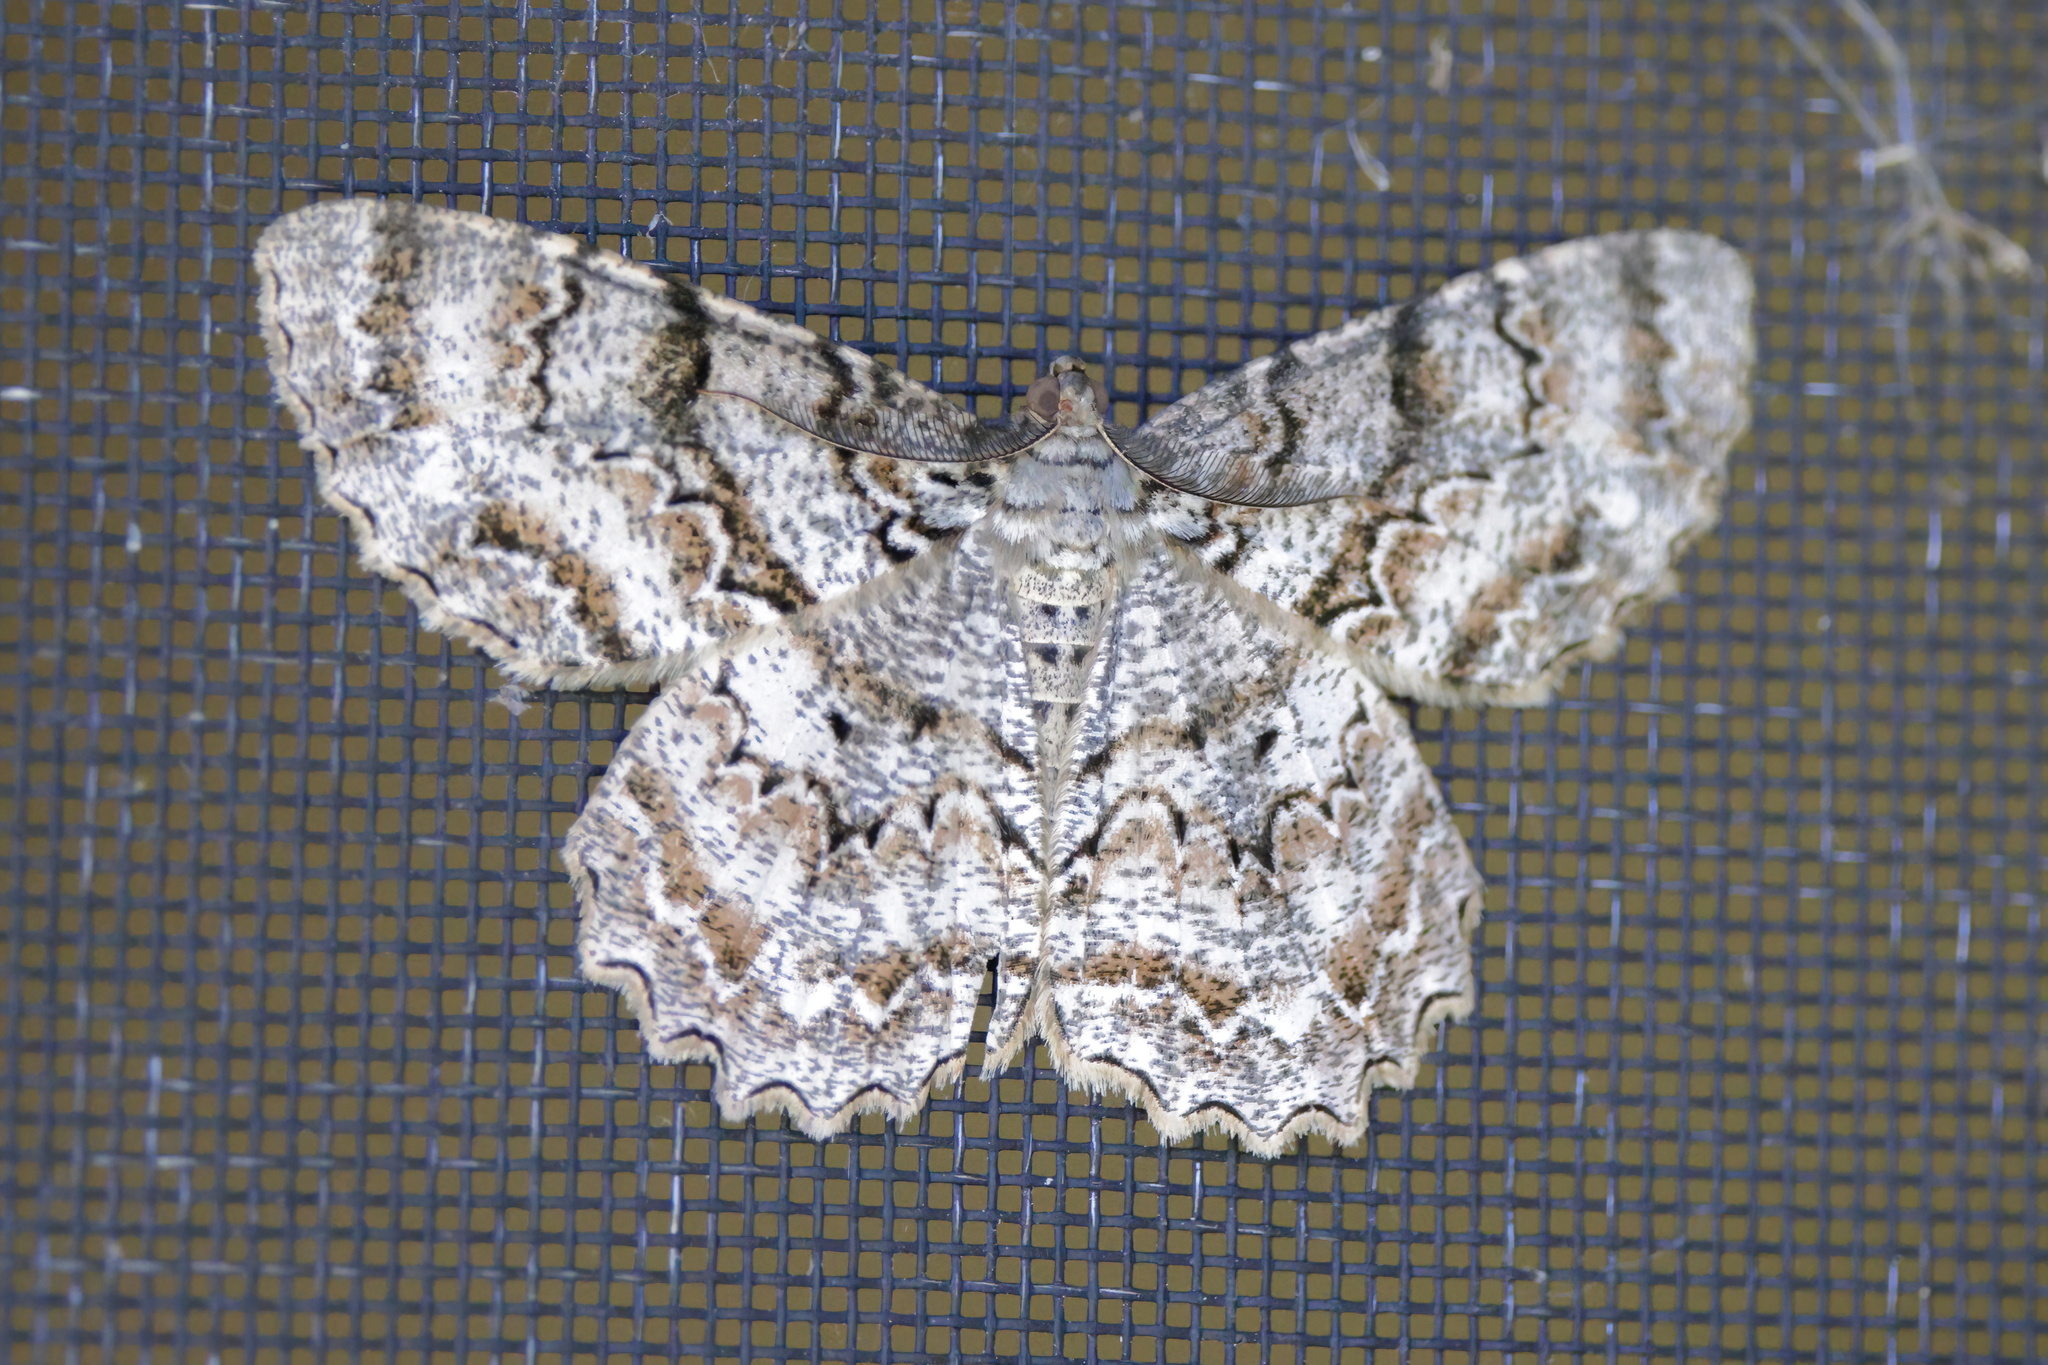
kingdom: Animalia
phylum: Arthropoda
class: Insecta
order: Lepidoptera
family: Geometridae
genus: Epimecis
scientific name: Epimecis hortaria
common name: Tulip-tree beauty
